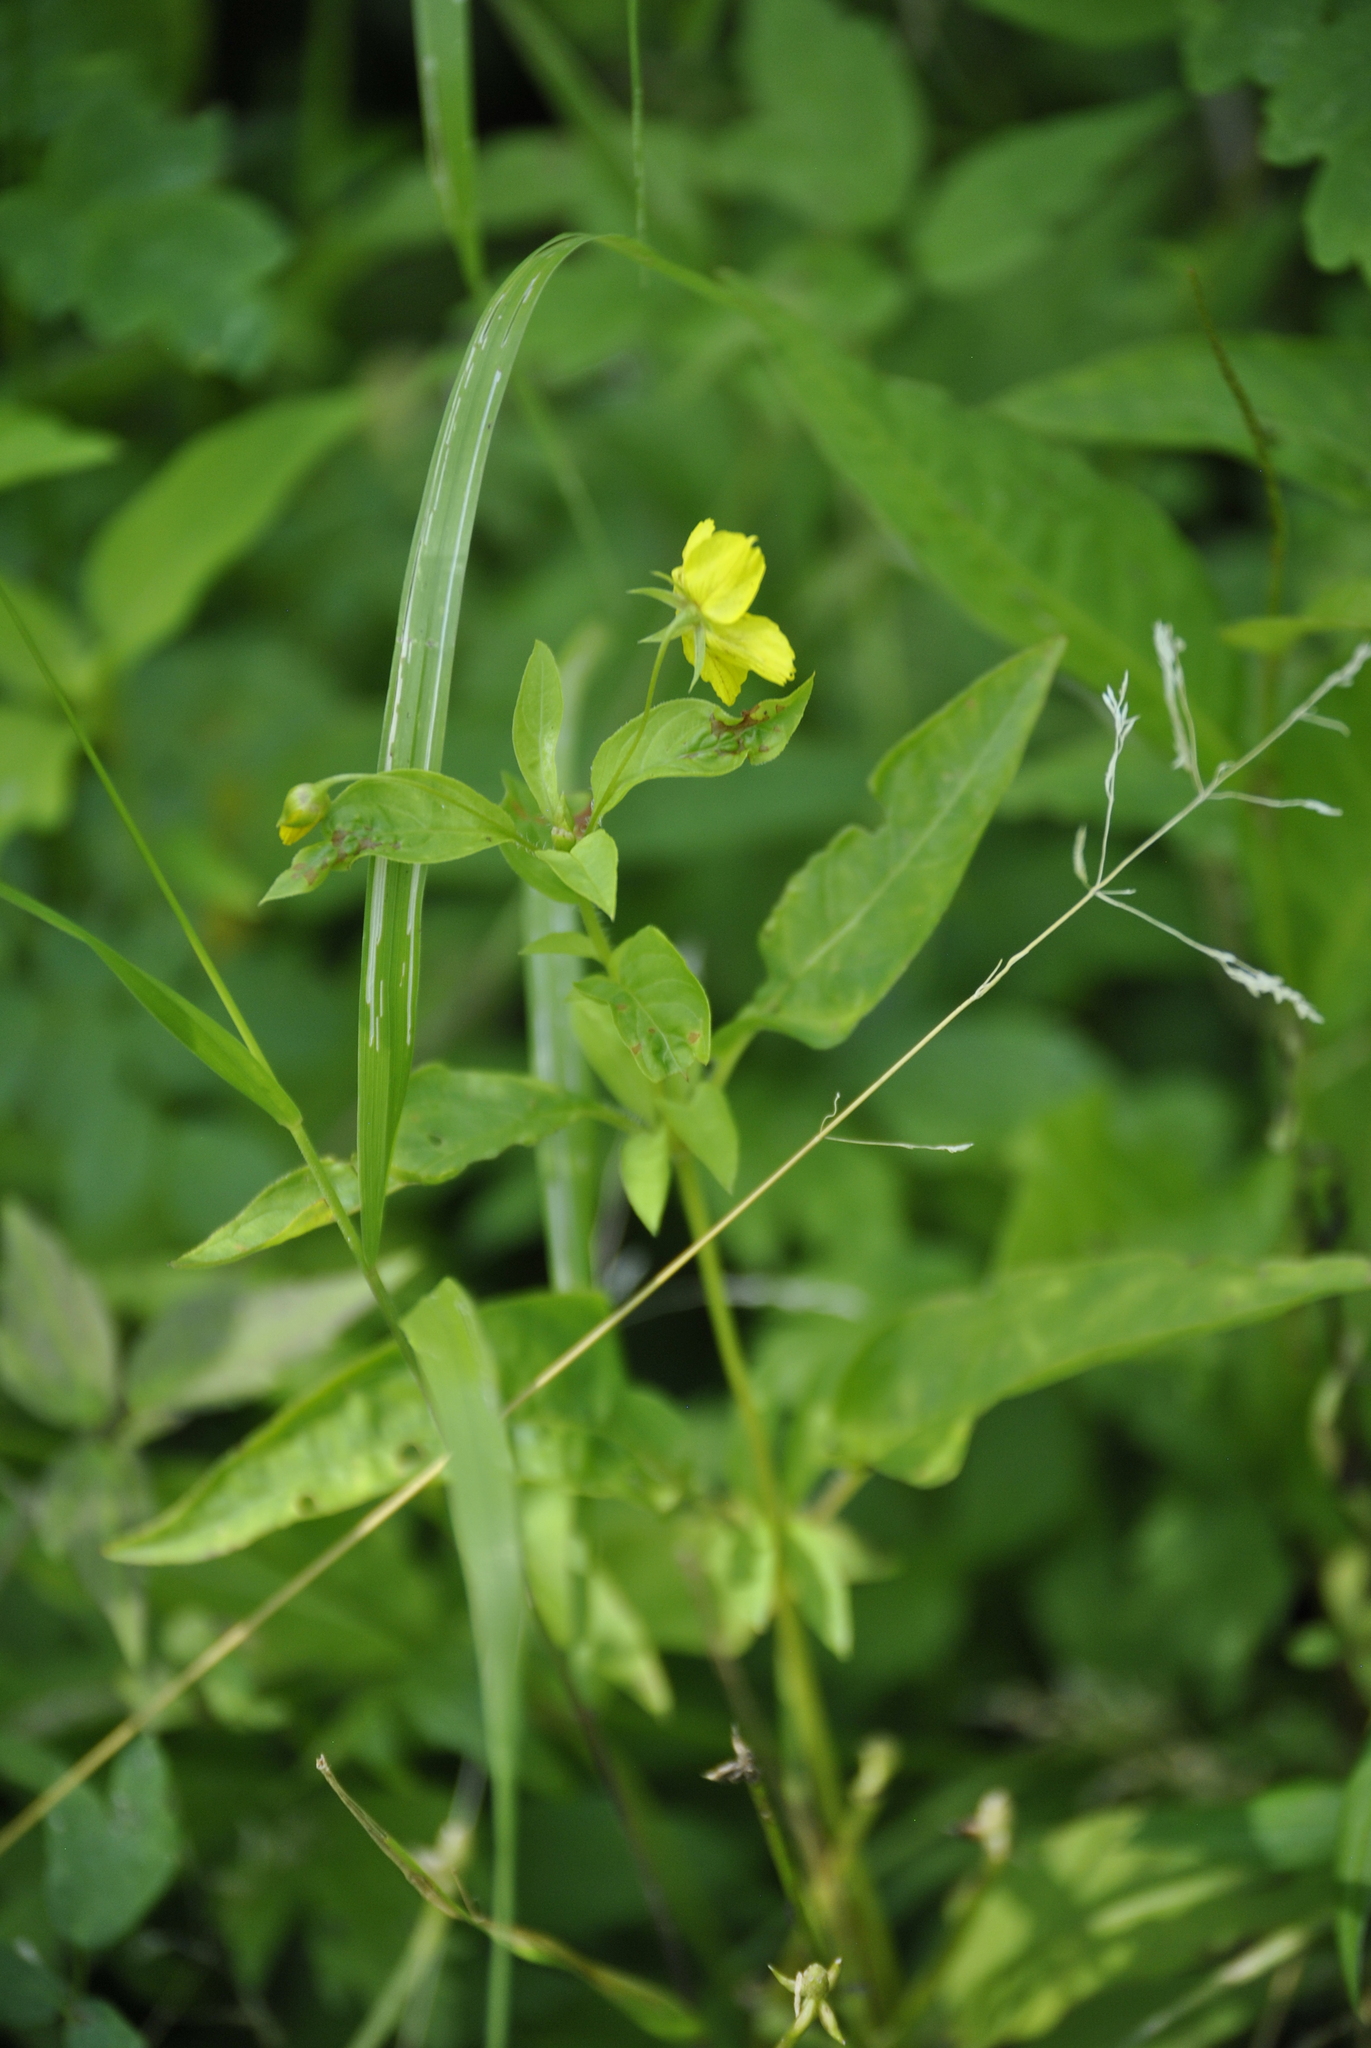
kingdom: Plantae
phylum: Tracheophyta
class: Magnoliopsida
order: Ericales
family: Primulaceae
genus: Lysimachia
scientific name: Lysimachia ciliata
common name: Fringed loosestrife
